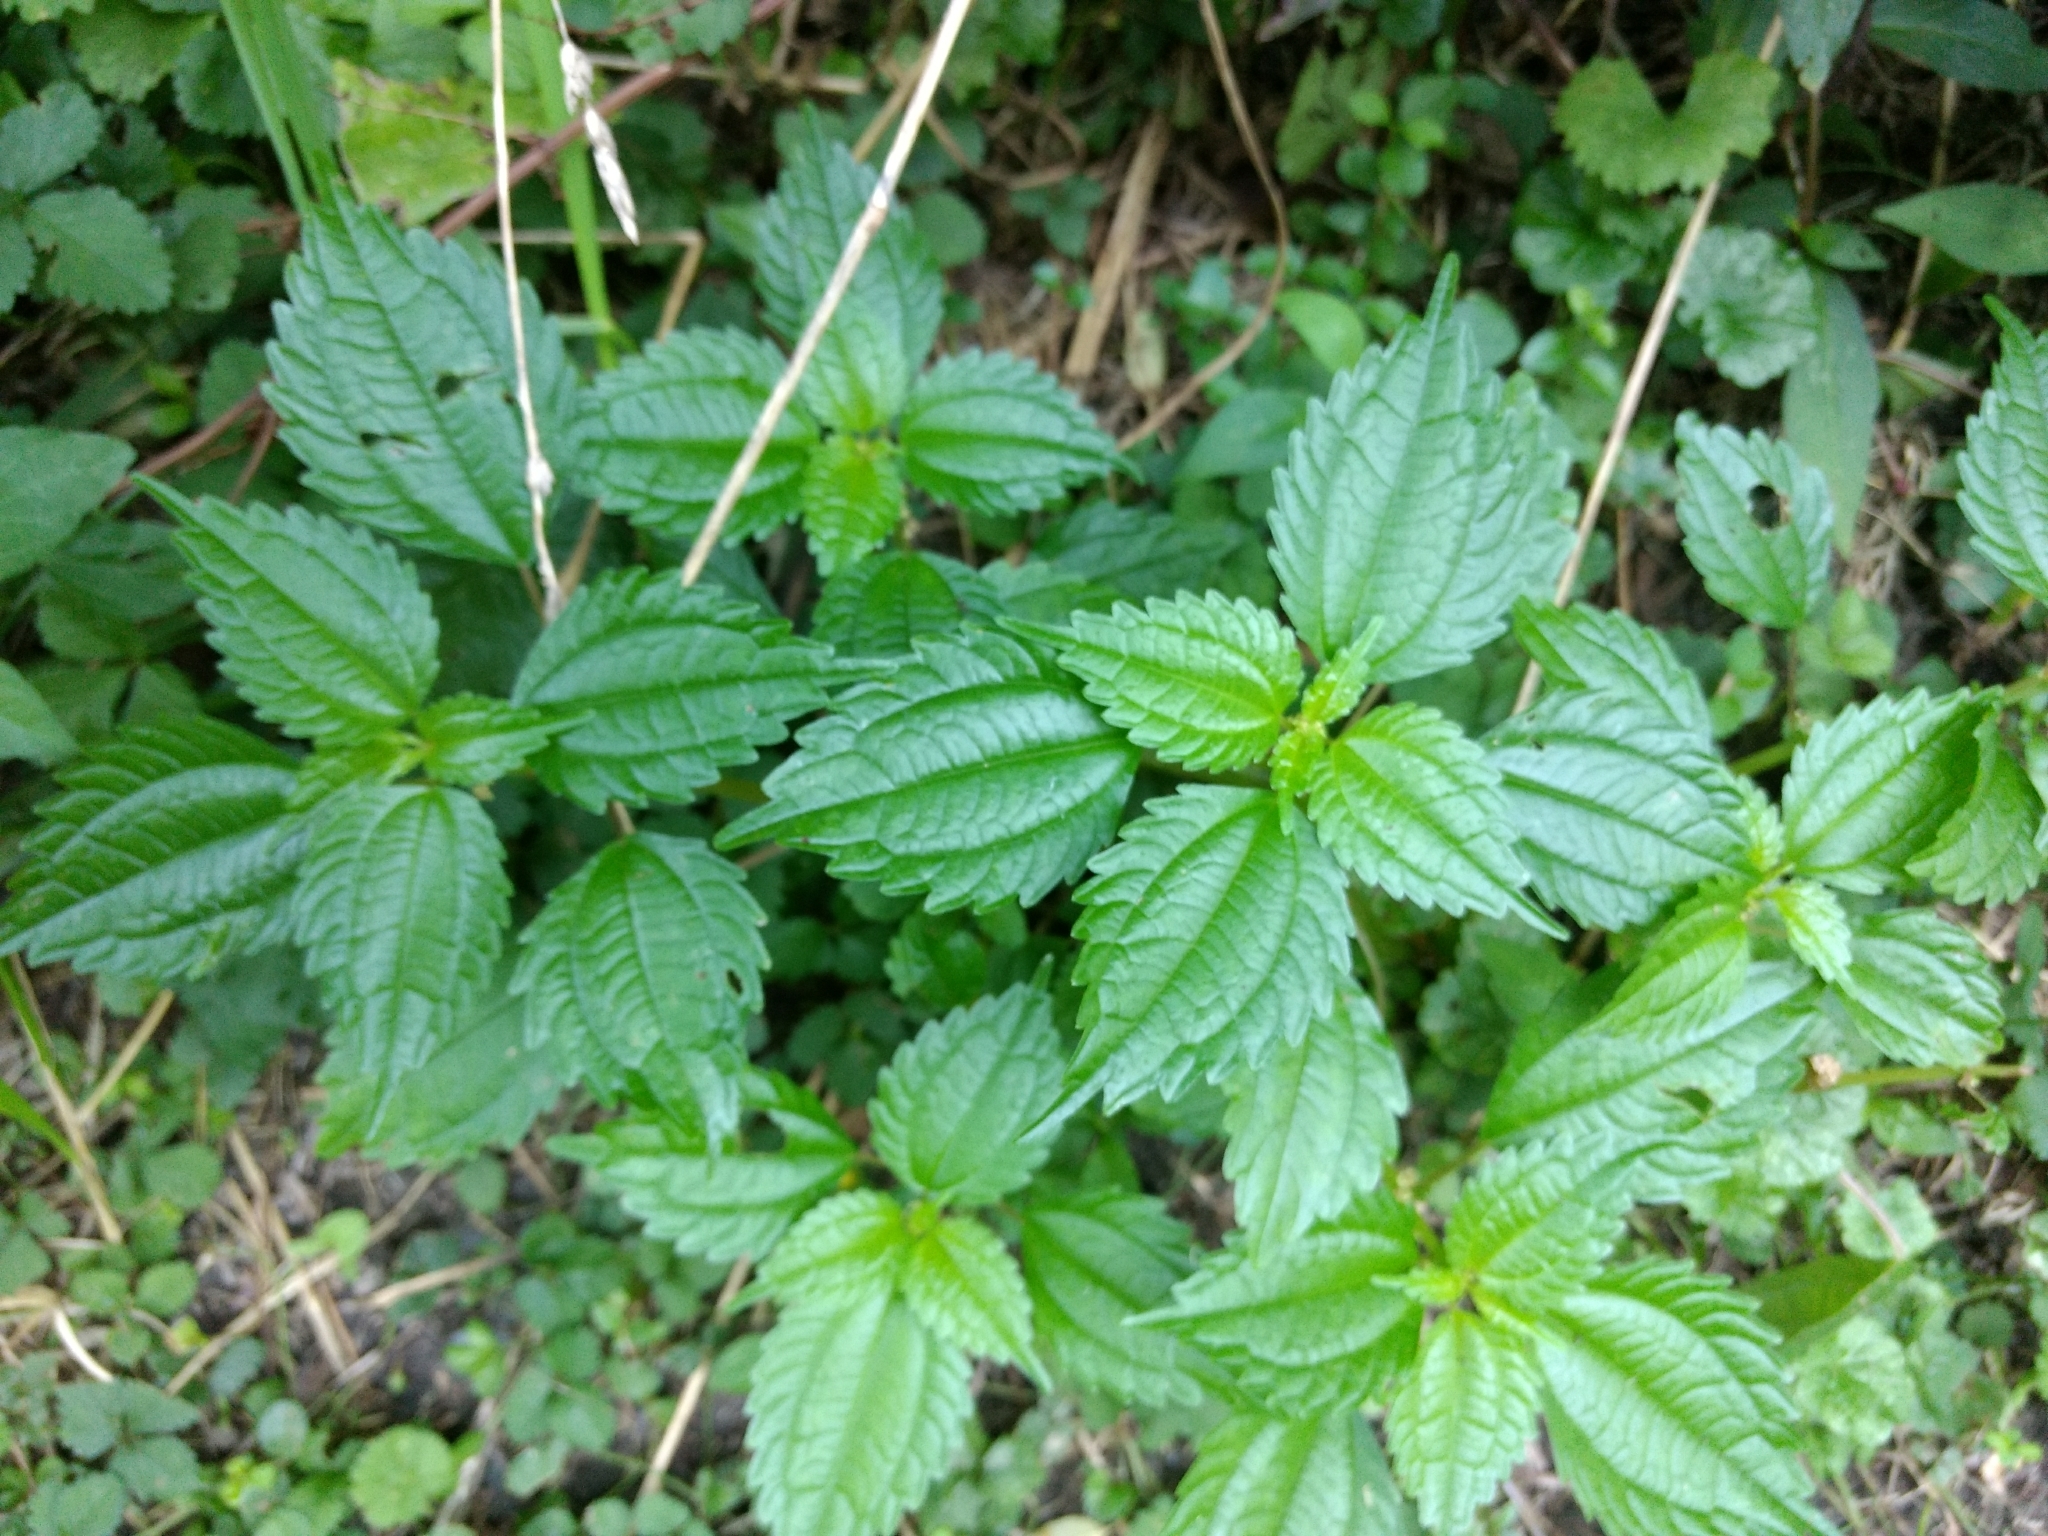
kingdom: Plantae
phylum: Tracheophyta
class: Magnoliopsida
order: Rosales
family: Urticaceae
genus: Pilea
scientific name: Pilea pumila
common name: Clearweed
